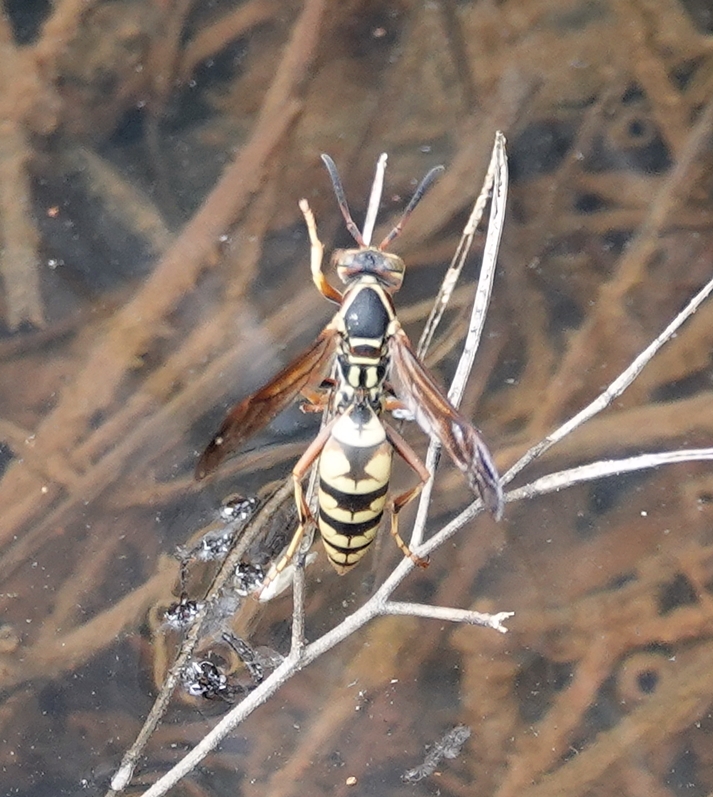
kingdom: Animalia
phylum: Arthropoda
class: Insecta
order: Hymenoptera
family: Eumenidae
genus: Polistes
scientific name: Polistes aurifer
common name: Paper wasp
